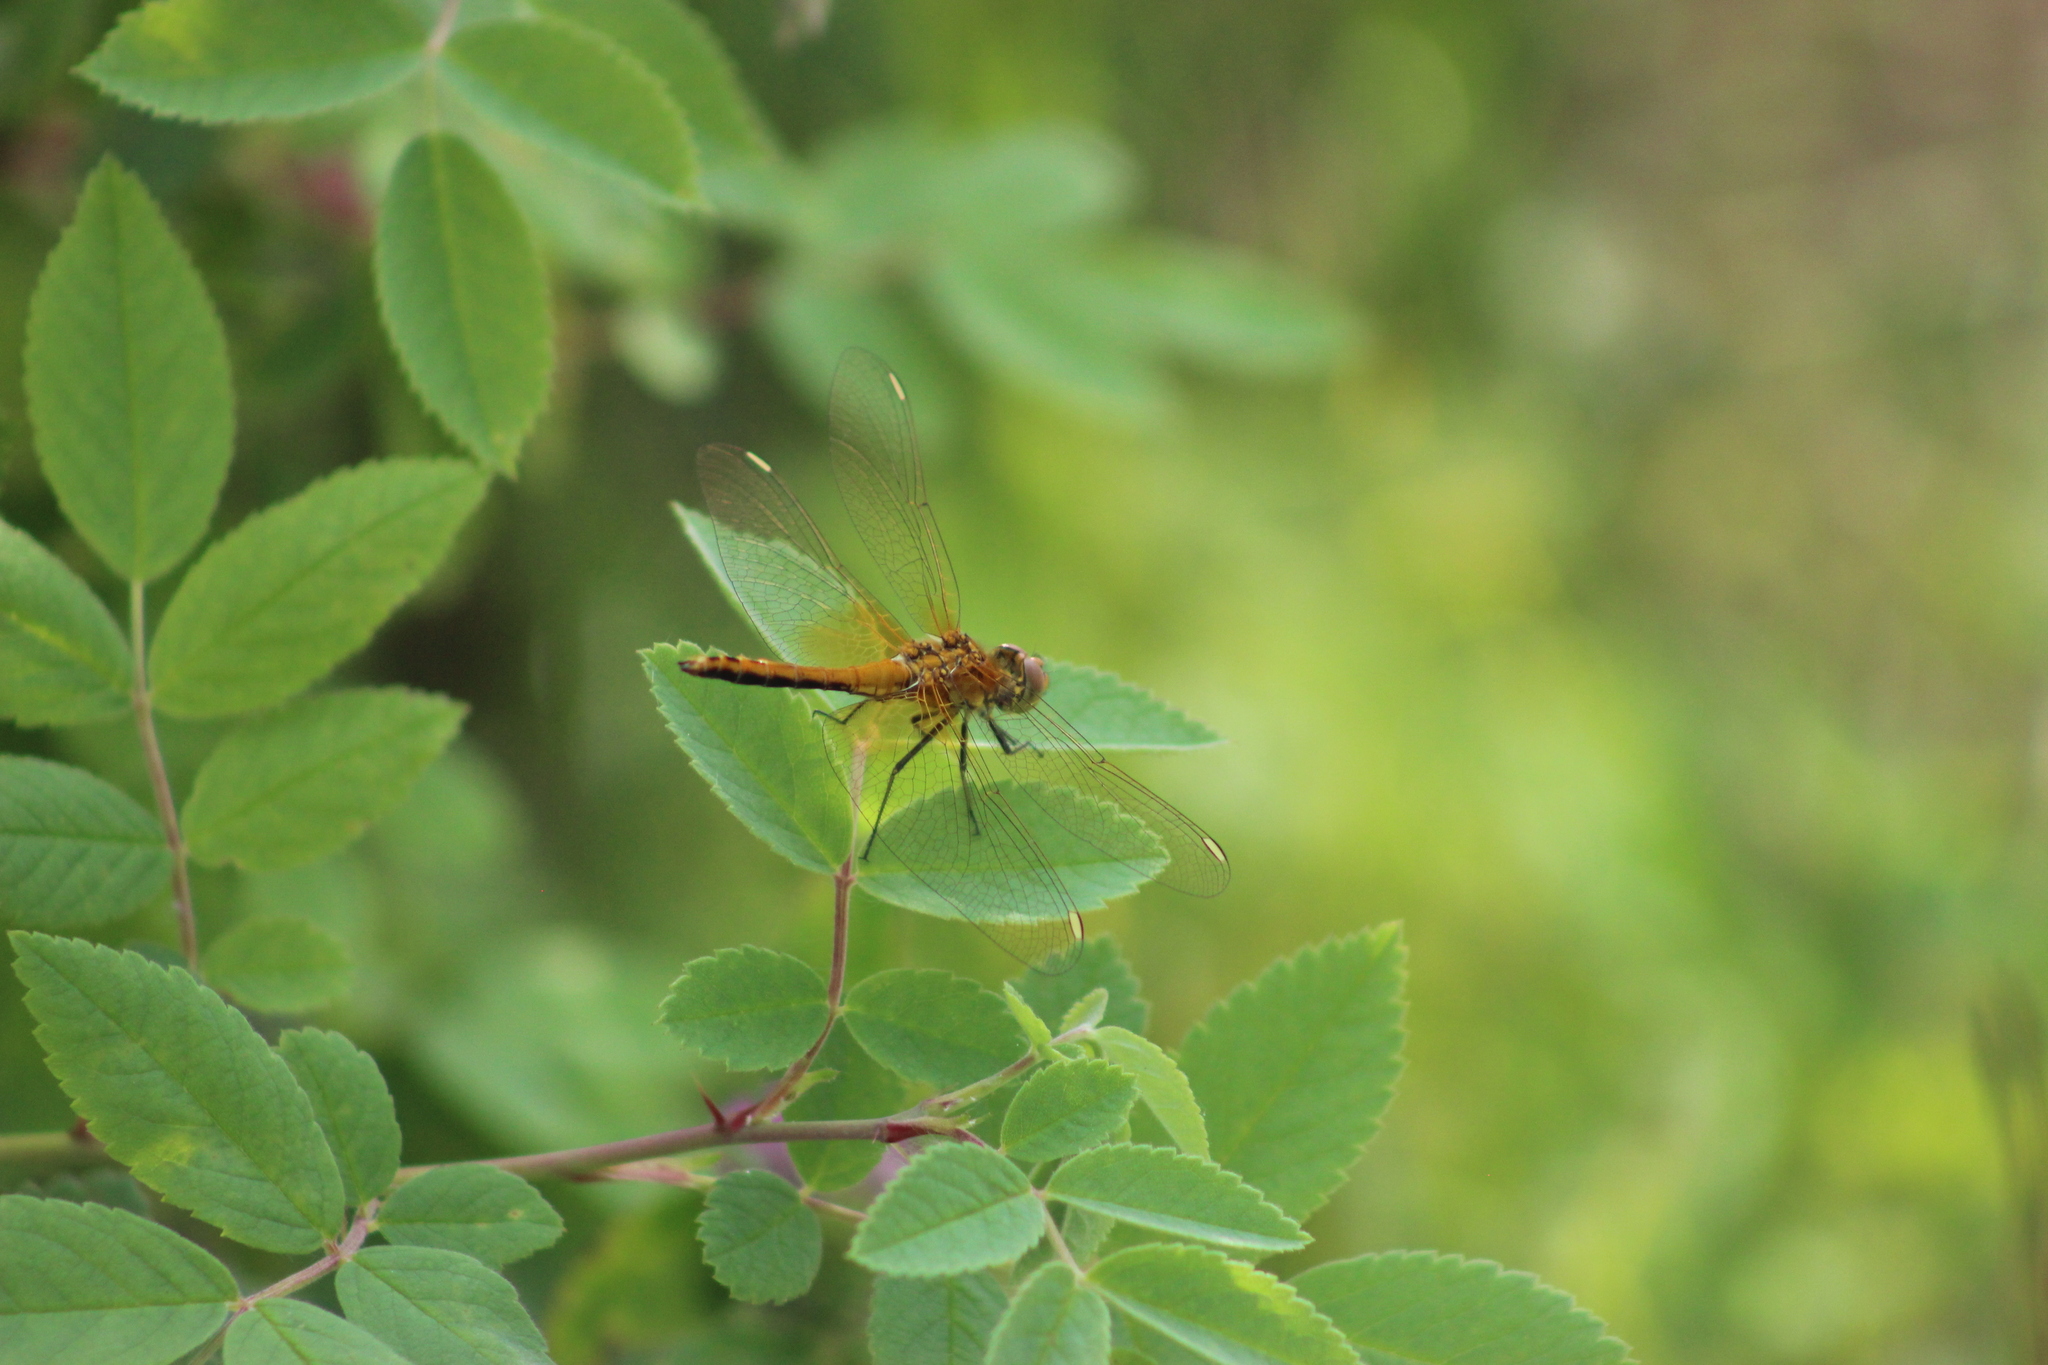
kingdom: Animalia
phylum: Arthropoda
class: Insecta
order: Odonata
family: Libellulidae
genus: Sympetrum
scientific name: Sympetrum flaveolum
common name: Yellow-winged darter
